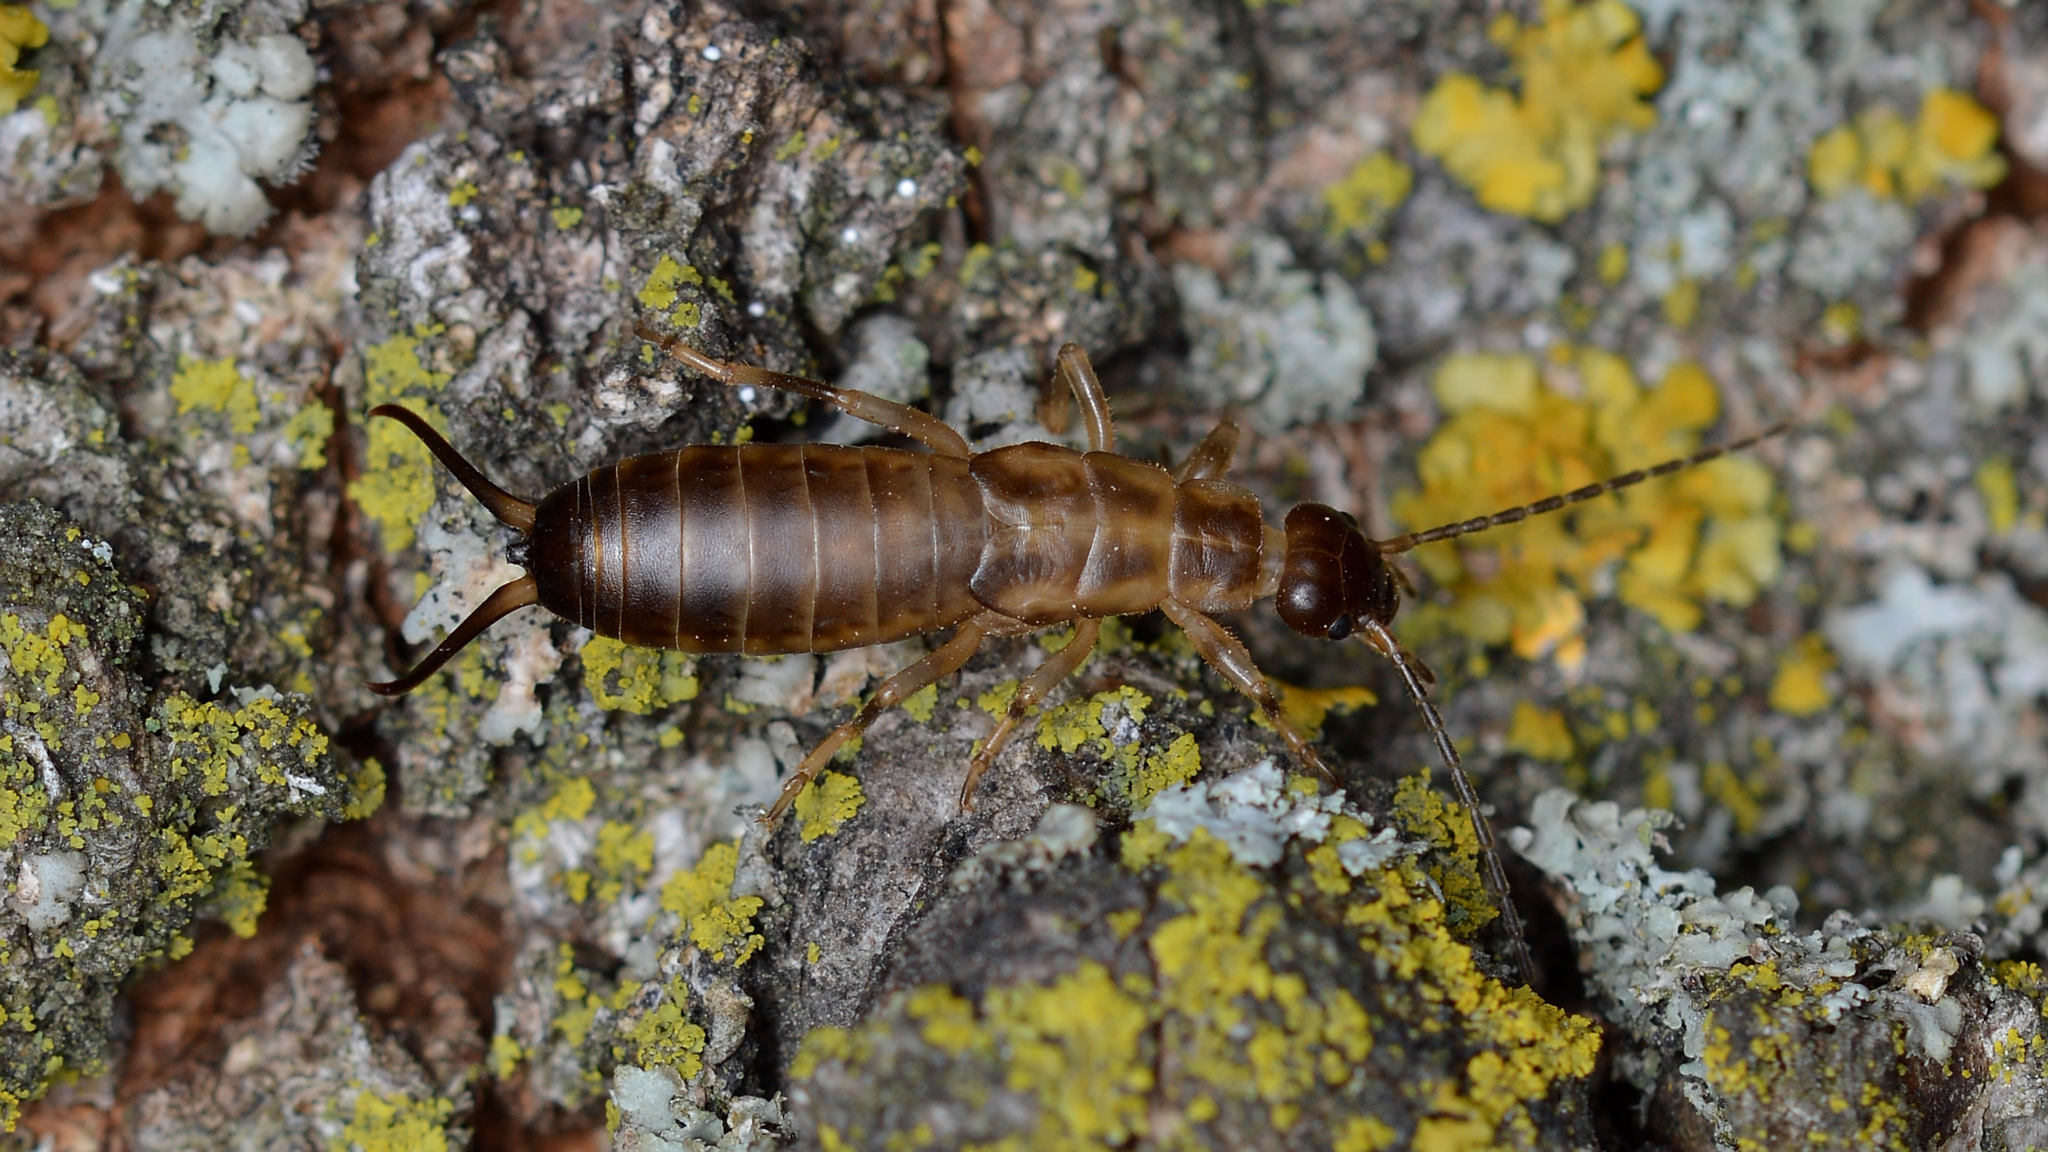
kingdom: Animalia
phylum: Arthropoda
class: Insecta
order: Dermaptera
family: Forficulidae
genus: Forficula
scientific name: Forficula
